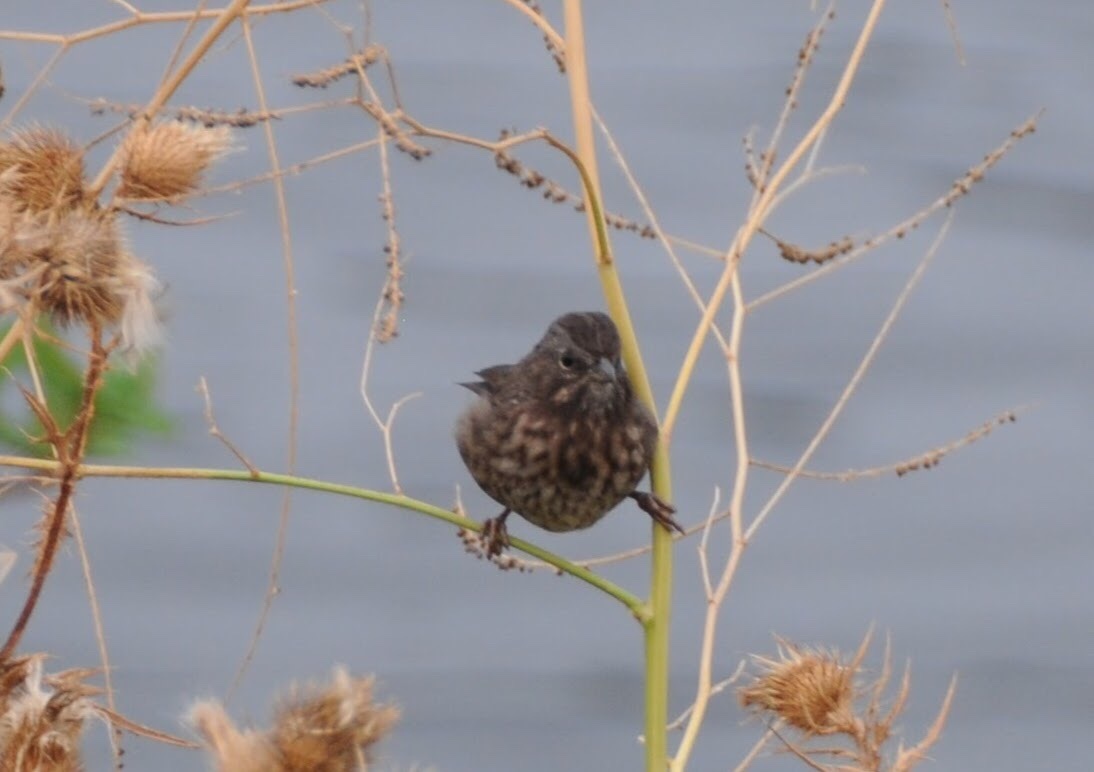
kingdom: Animalia
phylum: Chordata
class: Aves
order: Passeriformes
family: Passerellidae
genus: Melospiza
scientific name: Melospiza melodia
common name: Song sparrow
